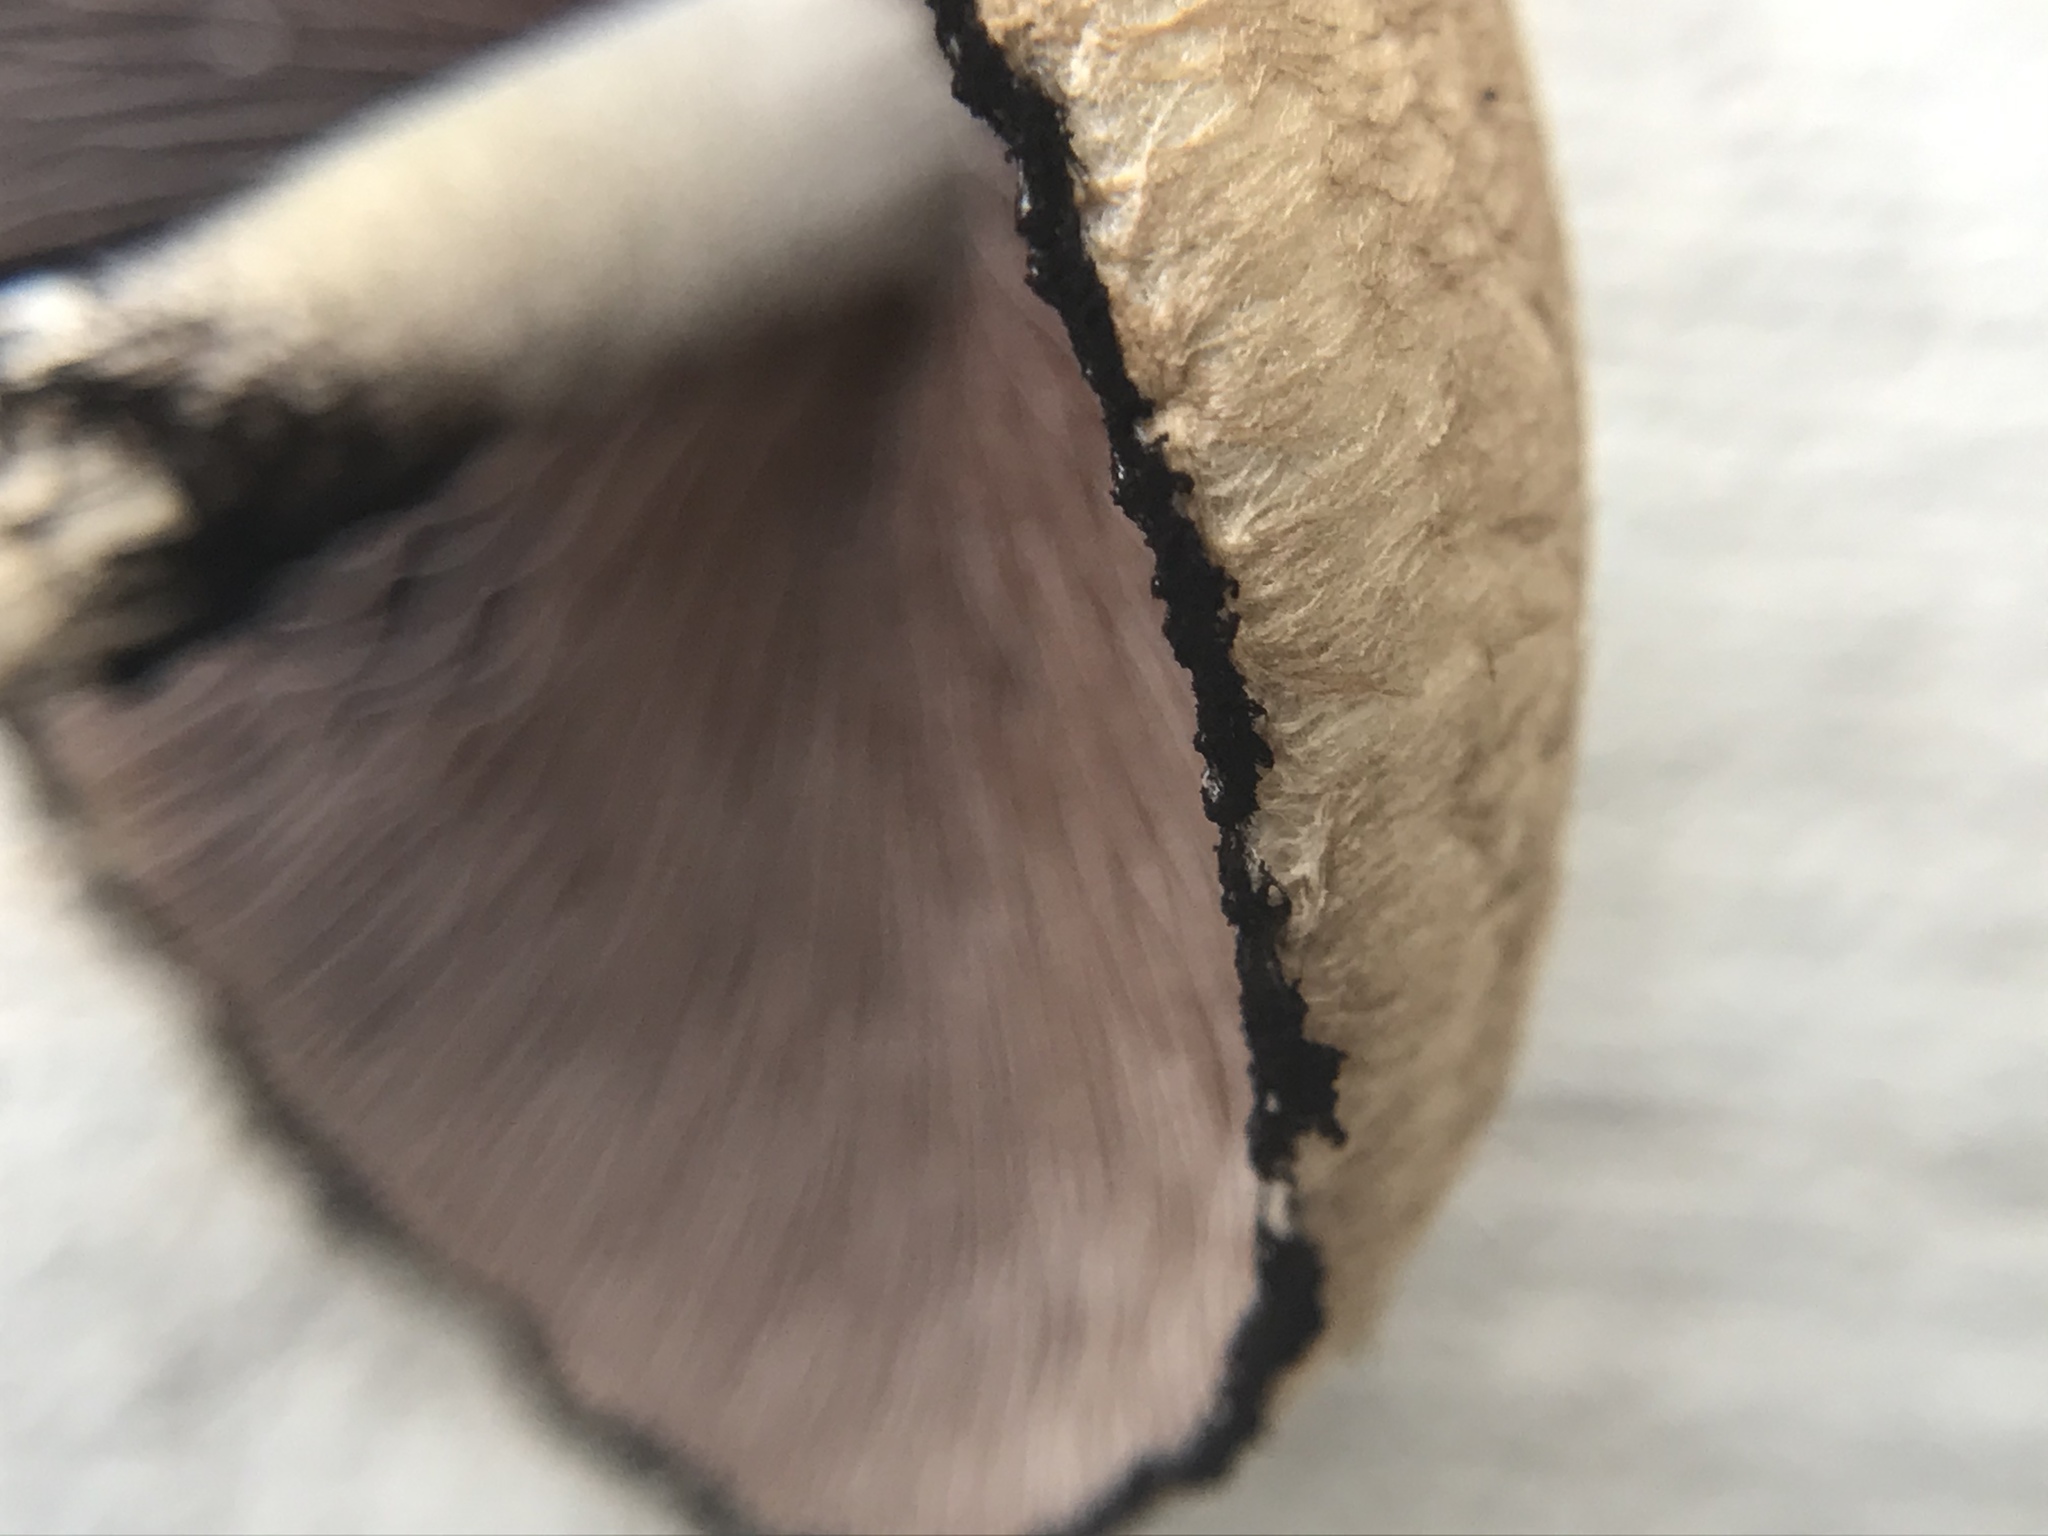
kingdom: Fungi
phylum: Basidiomycota
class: Agaricomycetes
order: Agaricales
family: Psathyrellaceae
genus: Lacrymaria
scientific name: Lacrymaria lacrymabunda
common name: Weeping widow
